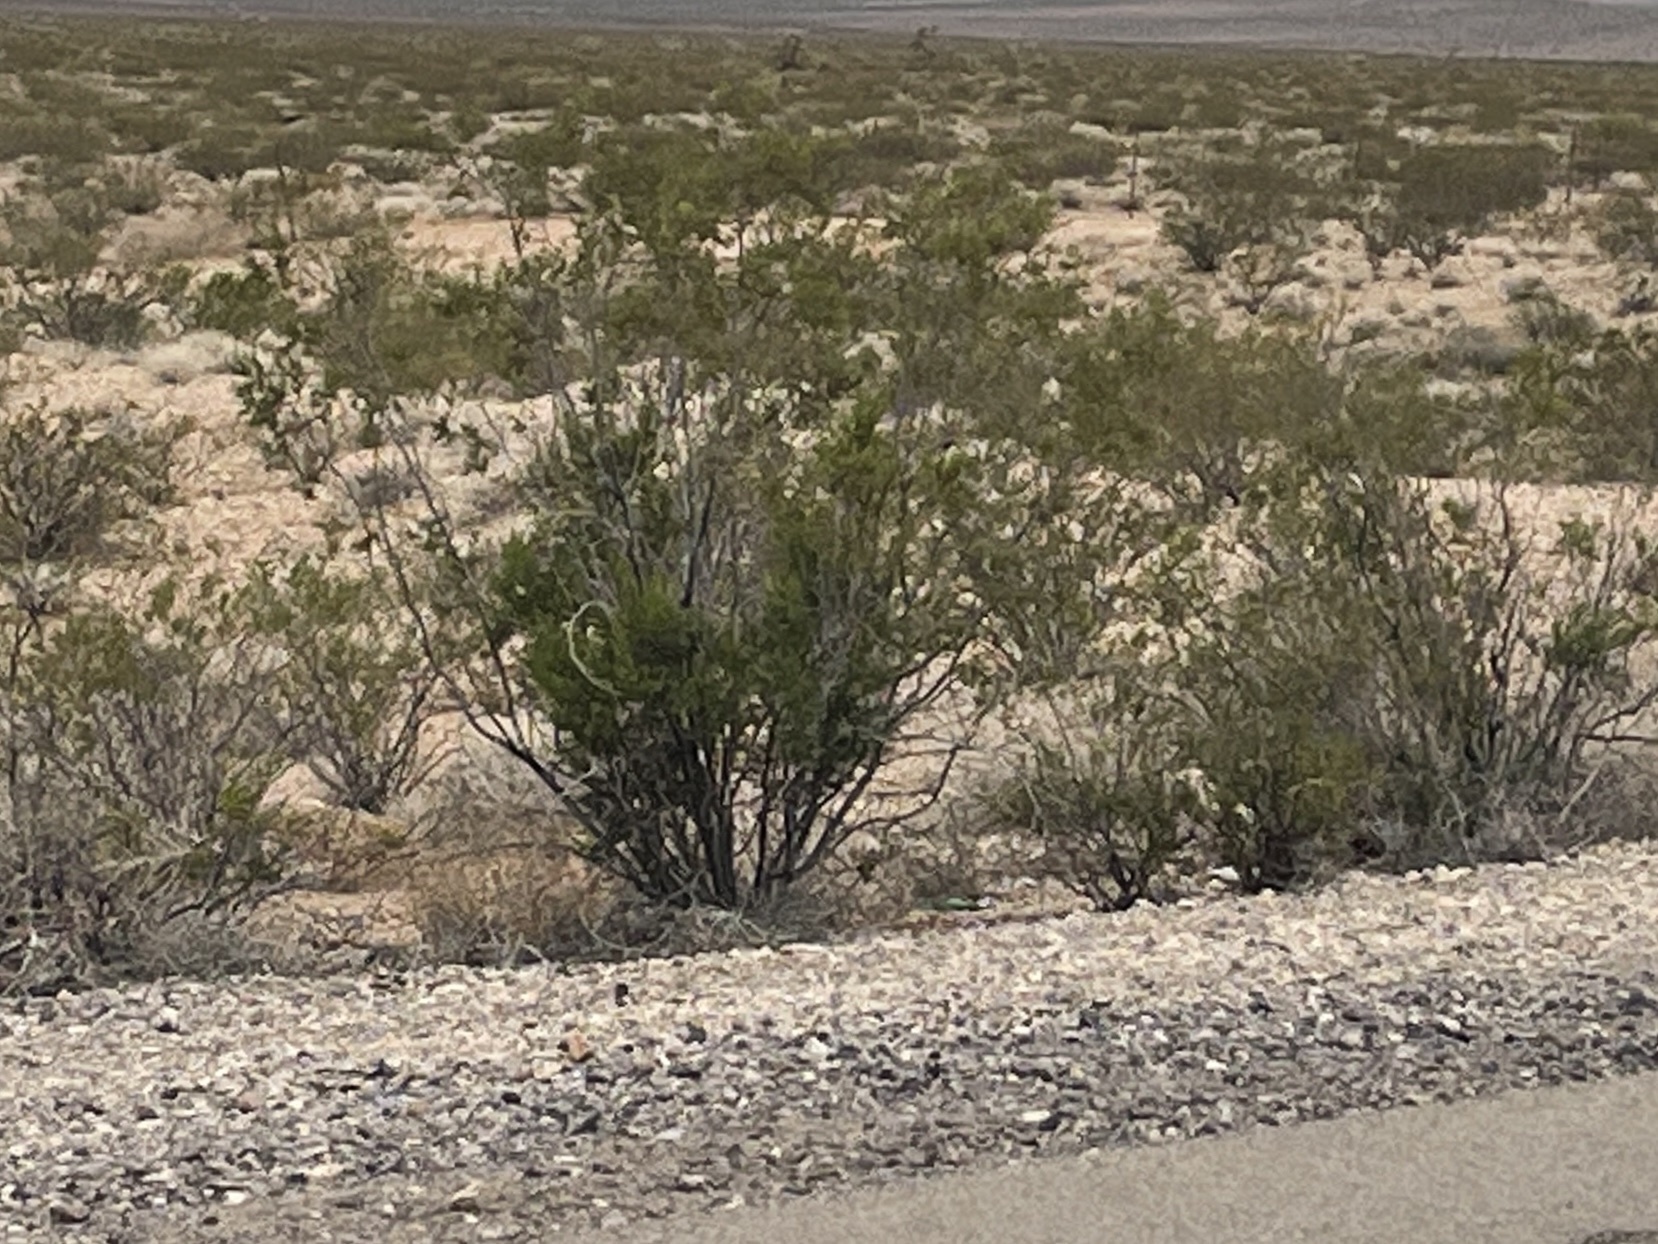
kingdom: Plantae
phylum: Tracheophyta
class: Magnoliopsida
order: Zygophyllales
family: Zygophyllaceae
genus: Larrea
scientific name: Larrea tridentata
